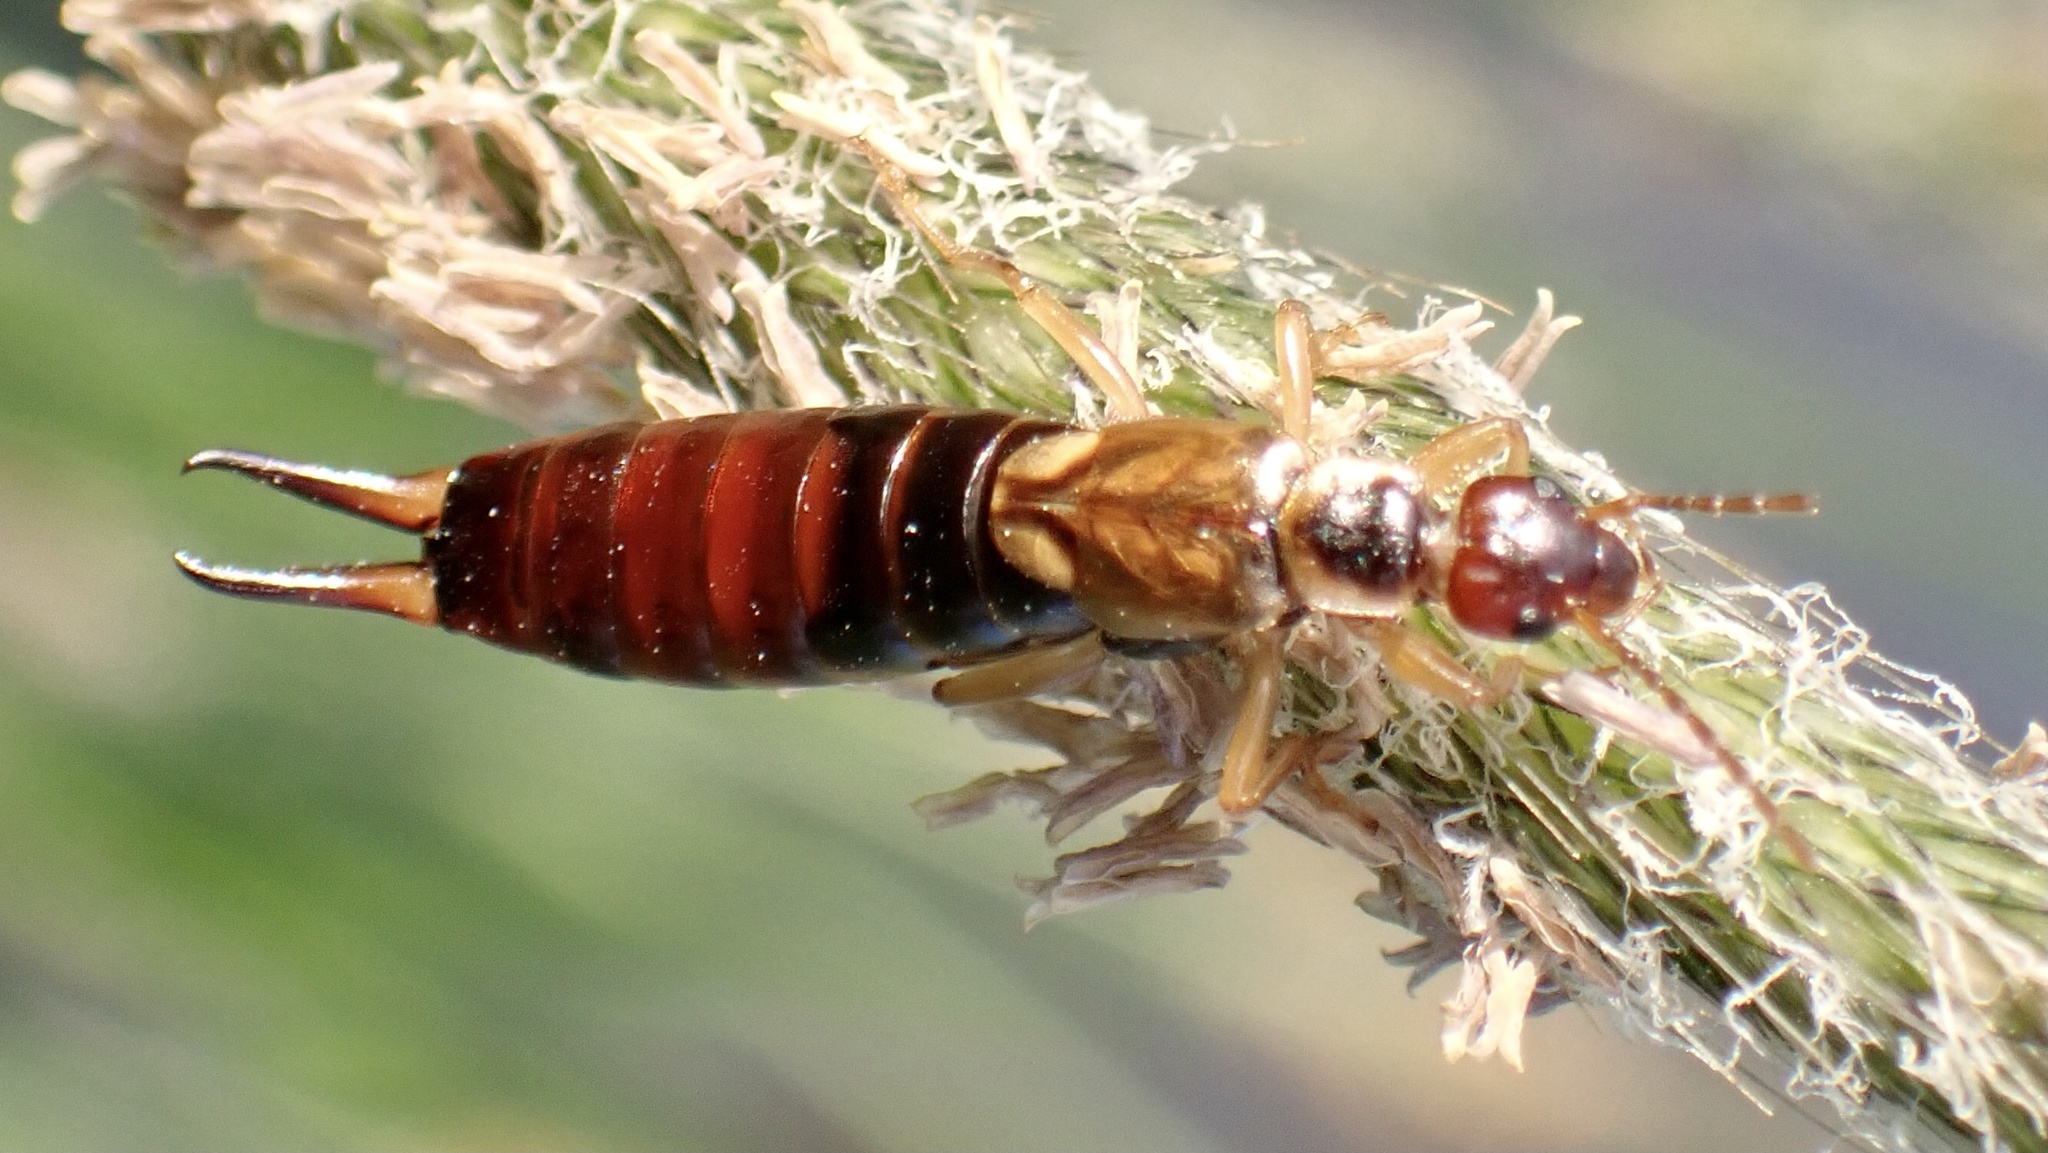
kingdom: Animalia
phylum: Arthropoda
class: Insecta
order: Dermaptera
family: Forficulidae
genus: Forficula
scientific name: Forficula
